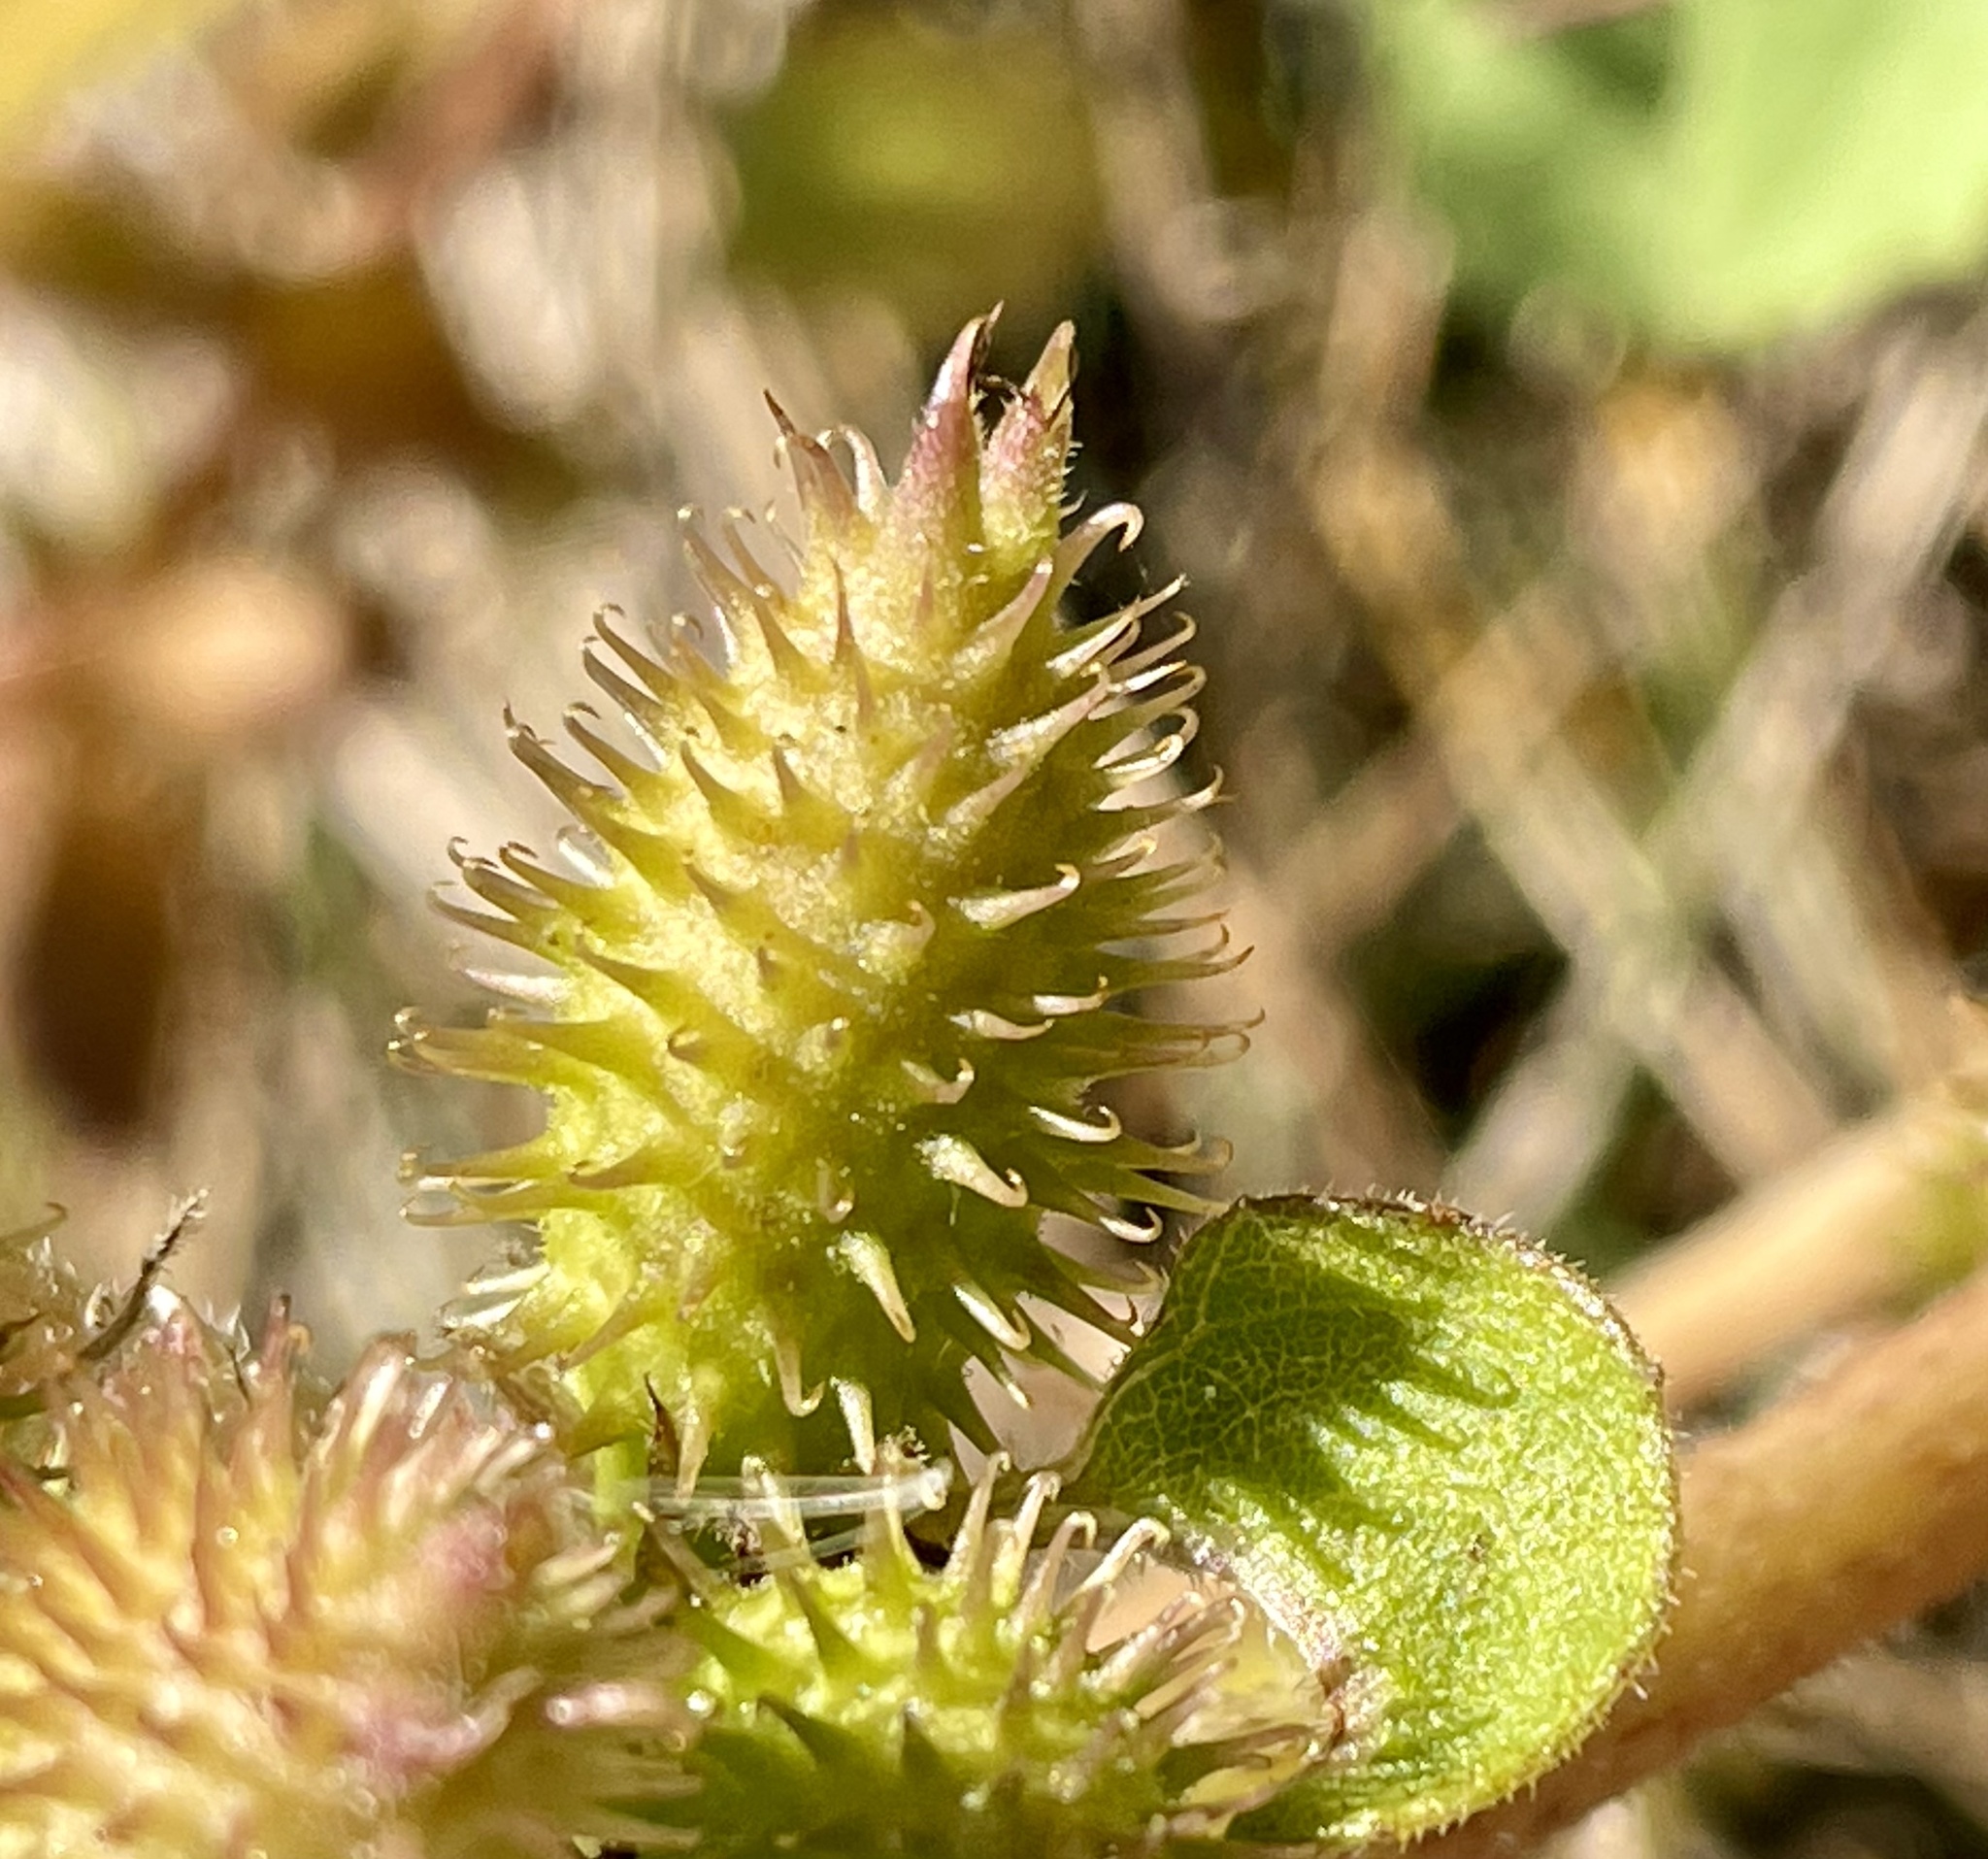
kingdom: Plantae
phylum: Tracheophyta
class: Magnoliopsida
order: Asterales
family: Asteraceae
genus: Xanthium
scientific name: Xanthium orientale
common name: Californian burr
